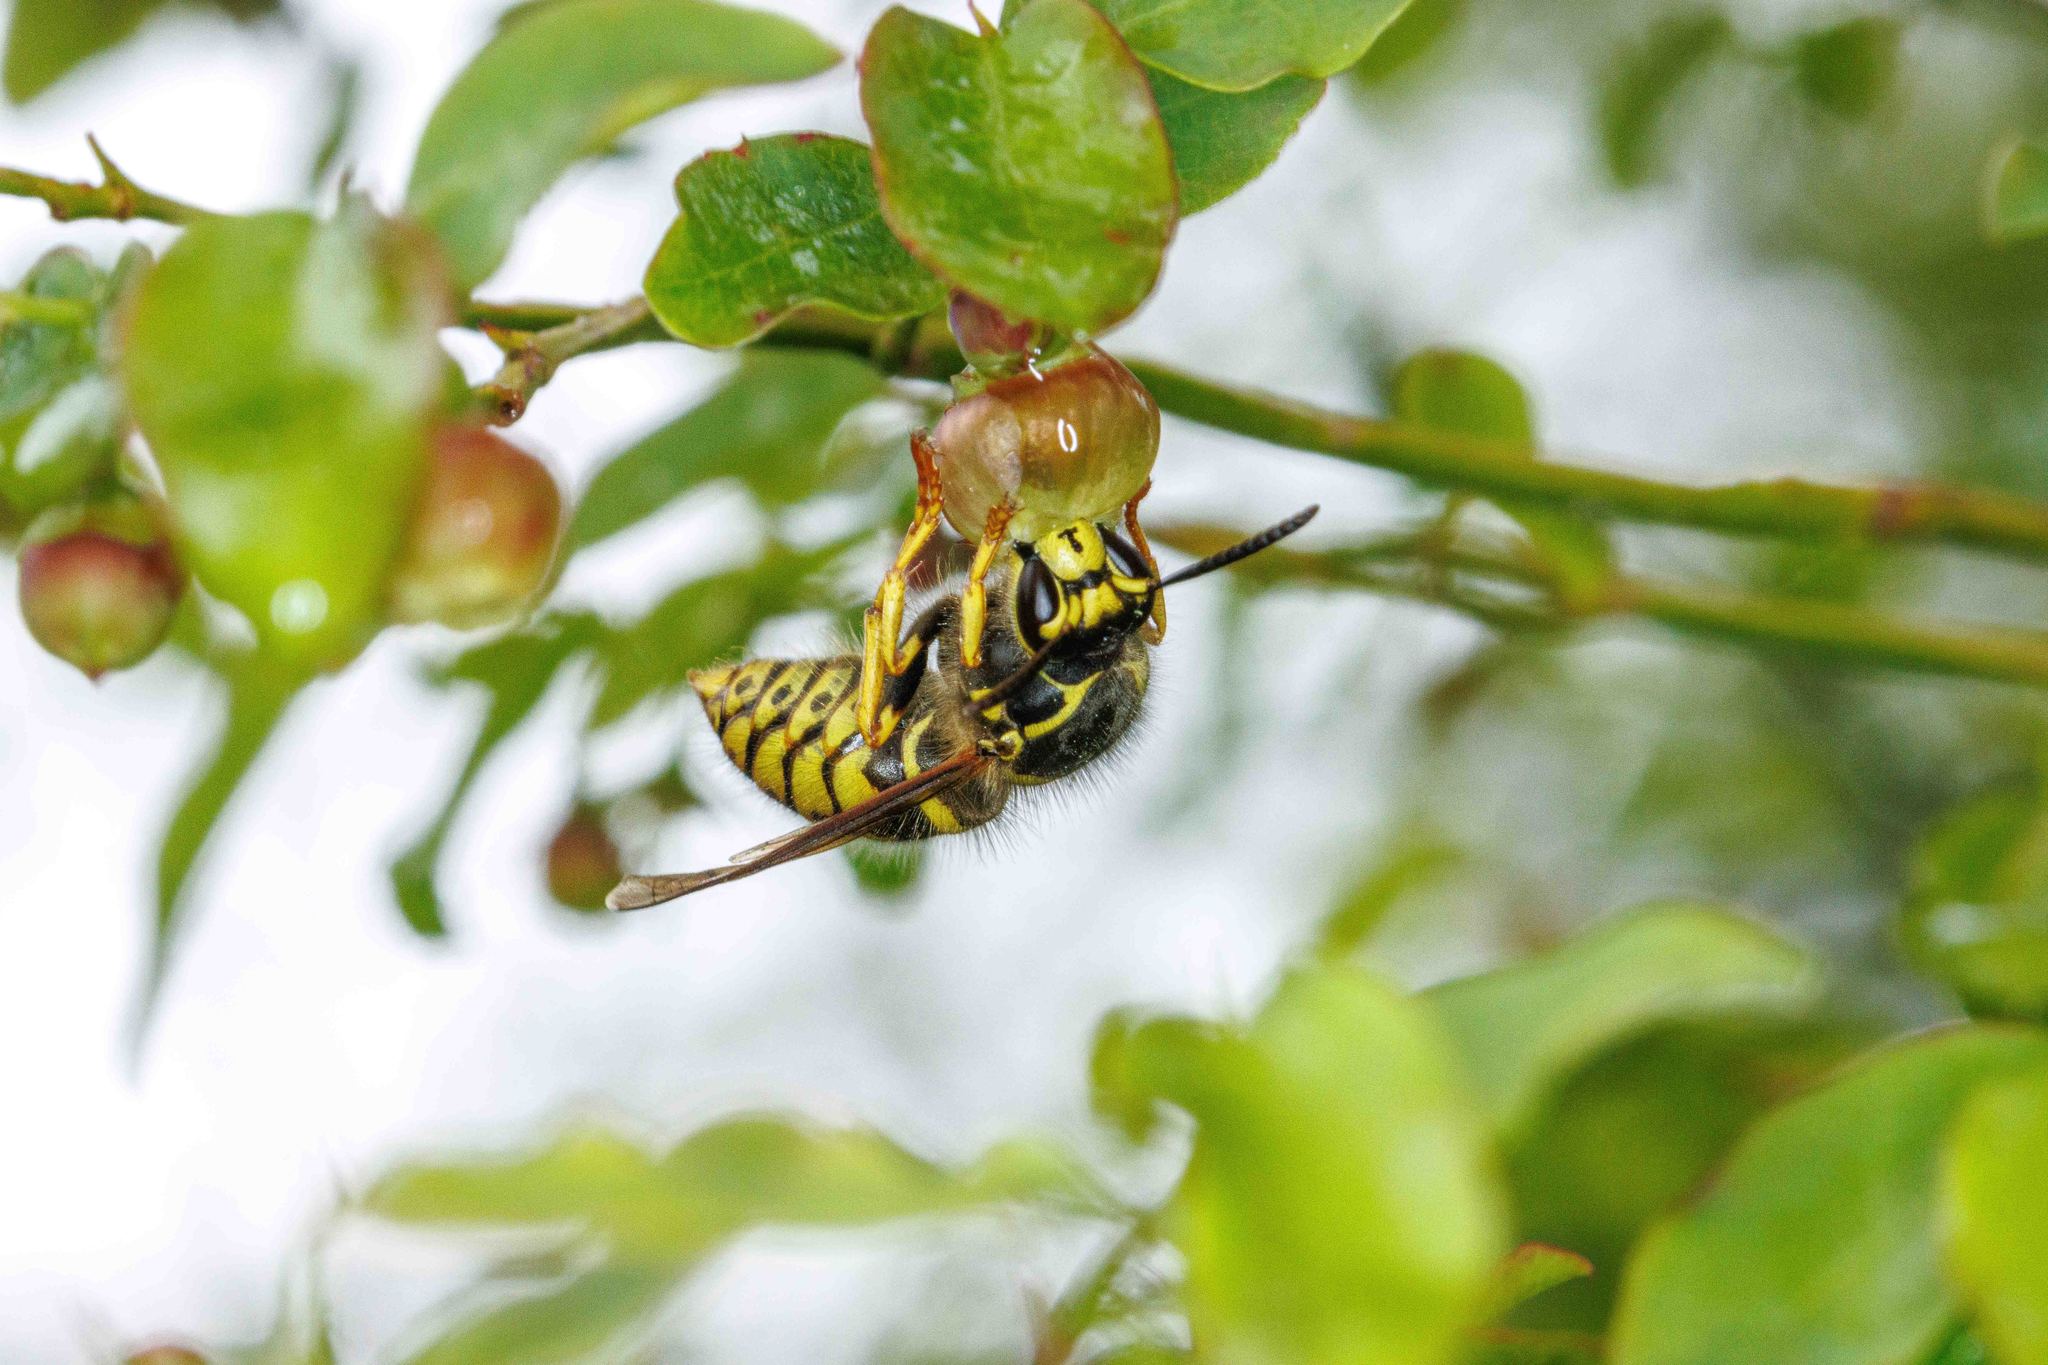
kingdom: Animalia
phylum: Arthropoda
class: Insecta
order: Hymenoptera
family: Vespidae
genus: Dolichovespula
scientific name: Dolichovespula arenaria
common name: Aerial yellowjacket
